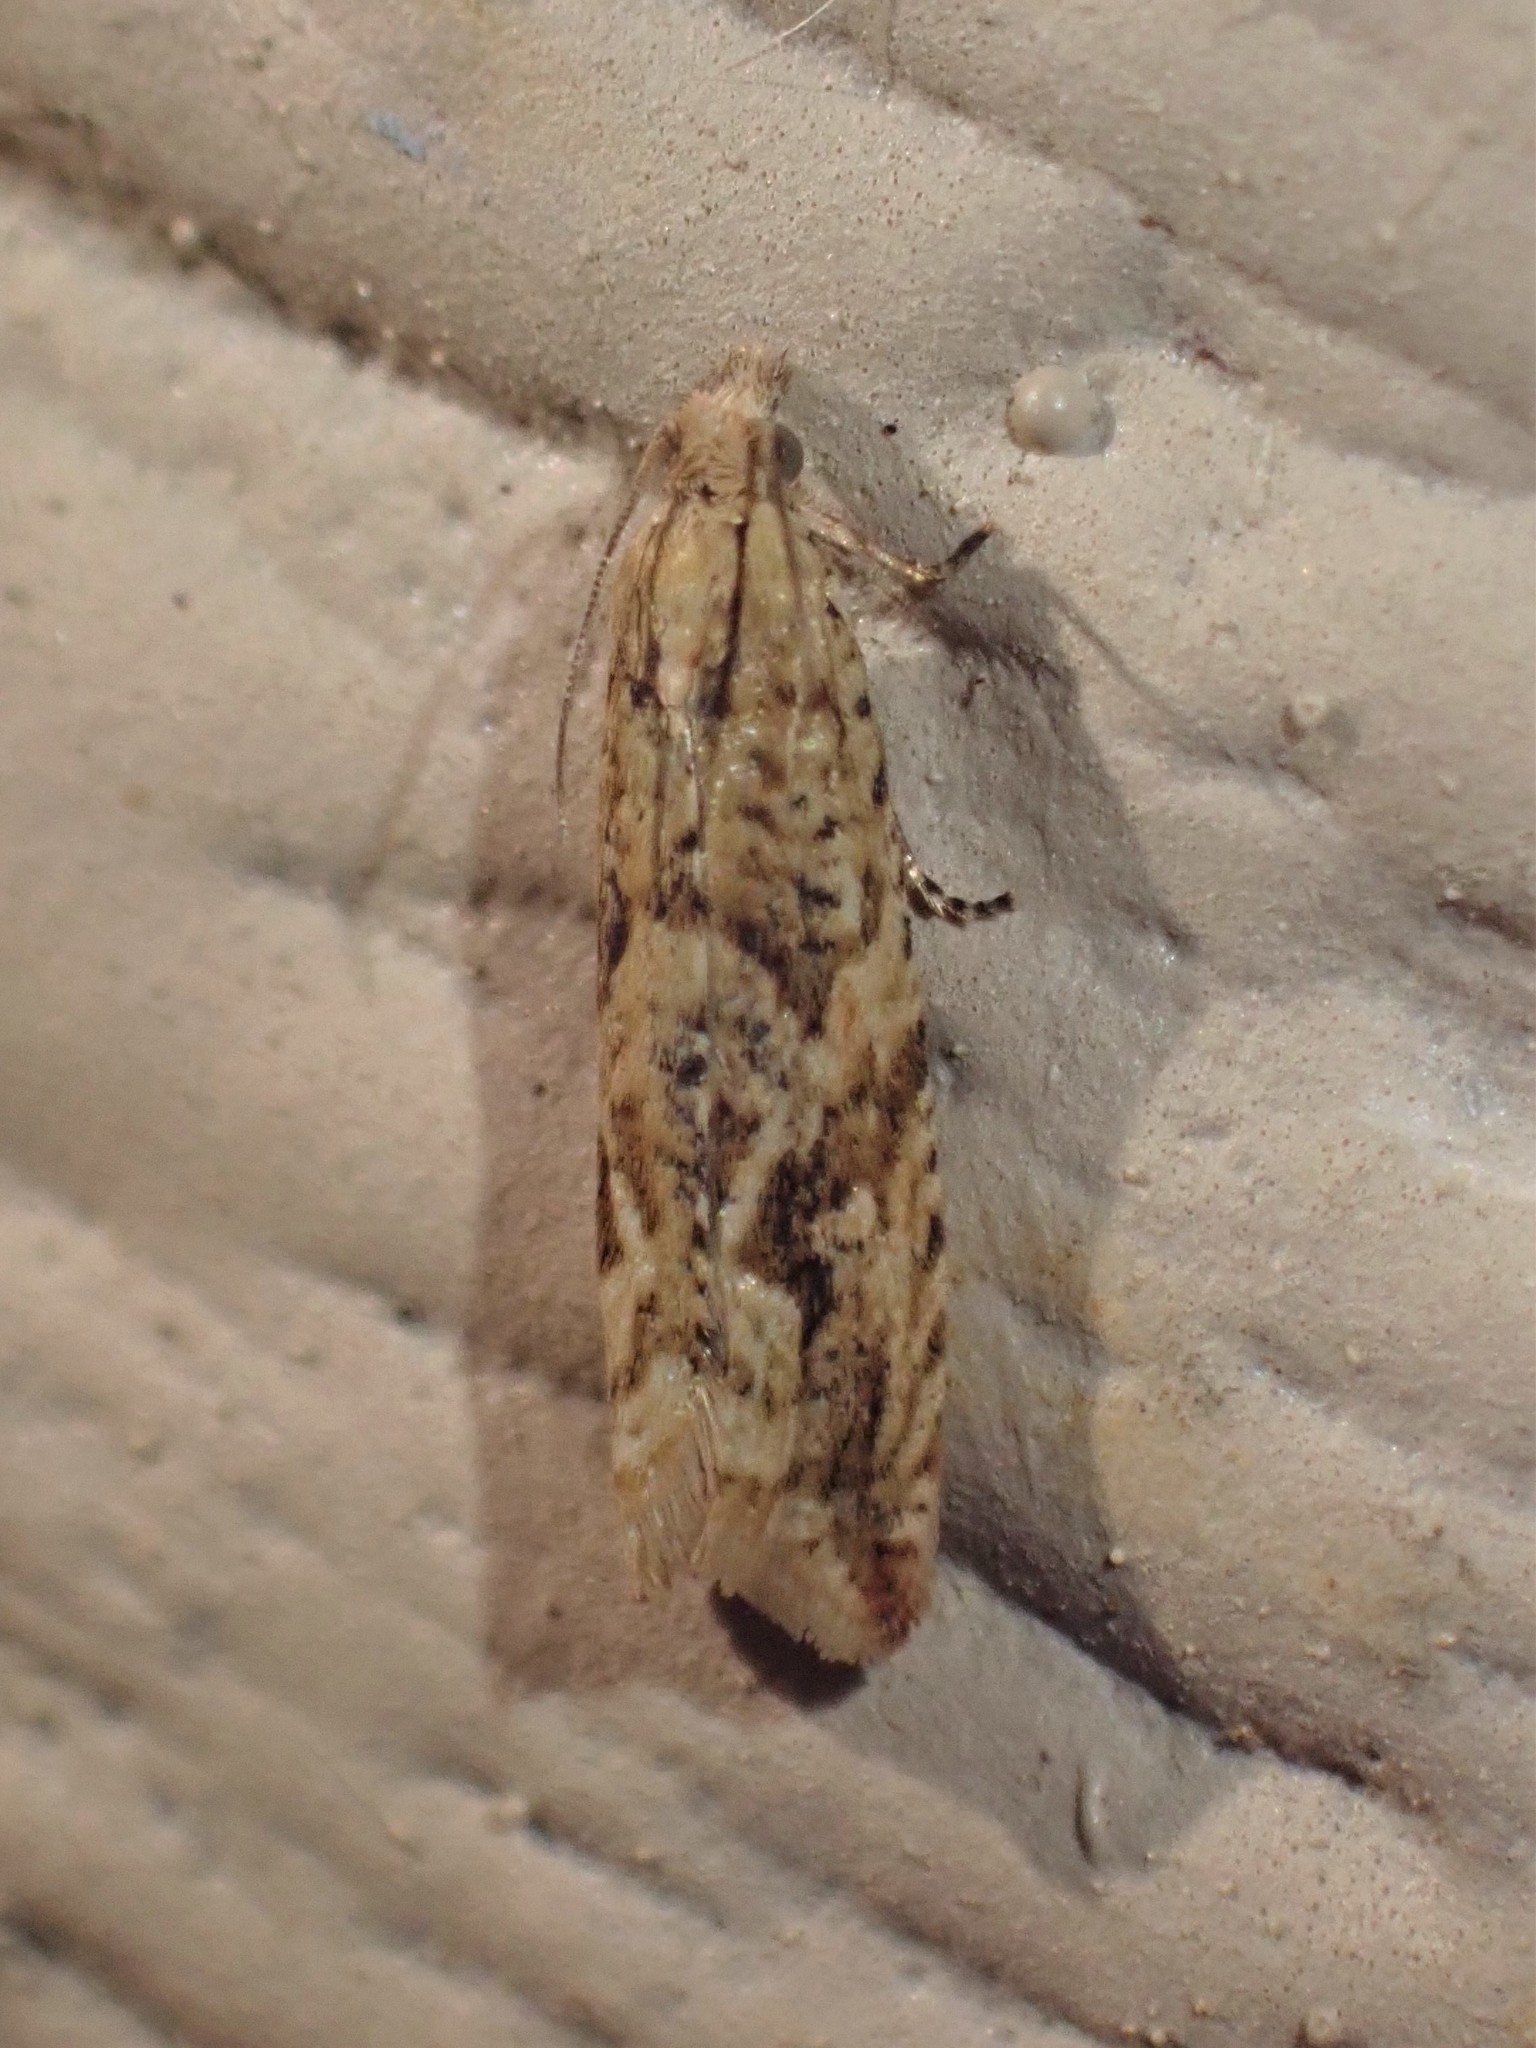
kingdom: Animalia
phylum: Arthropoda
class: Insecta
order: Lepidoptera
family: Tortricidae
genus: Bactra
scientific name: Bactra furfurana
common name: Mottled marble
